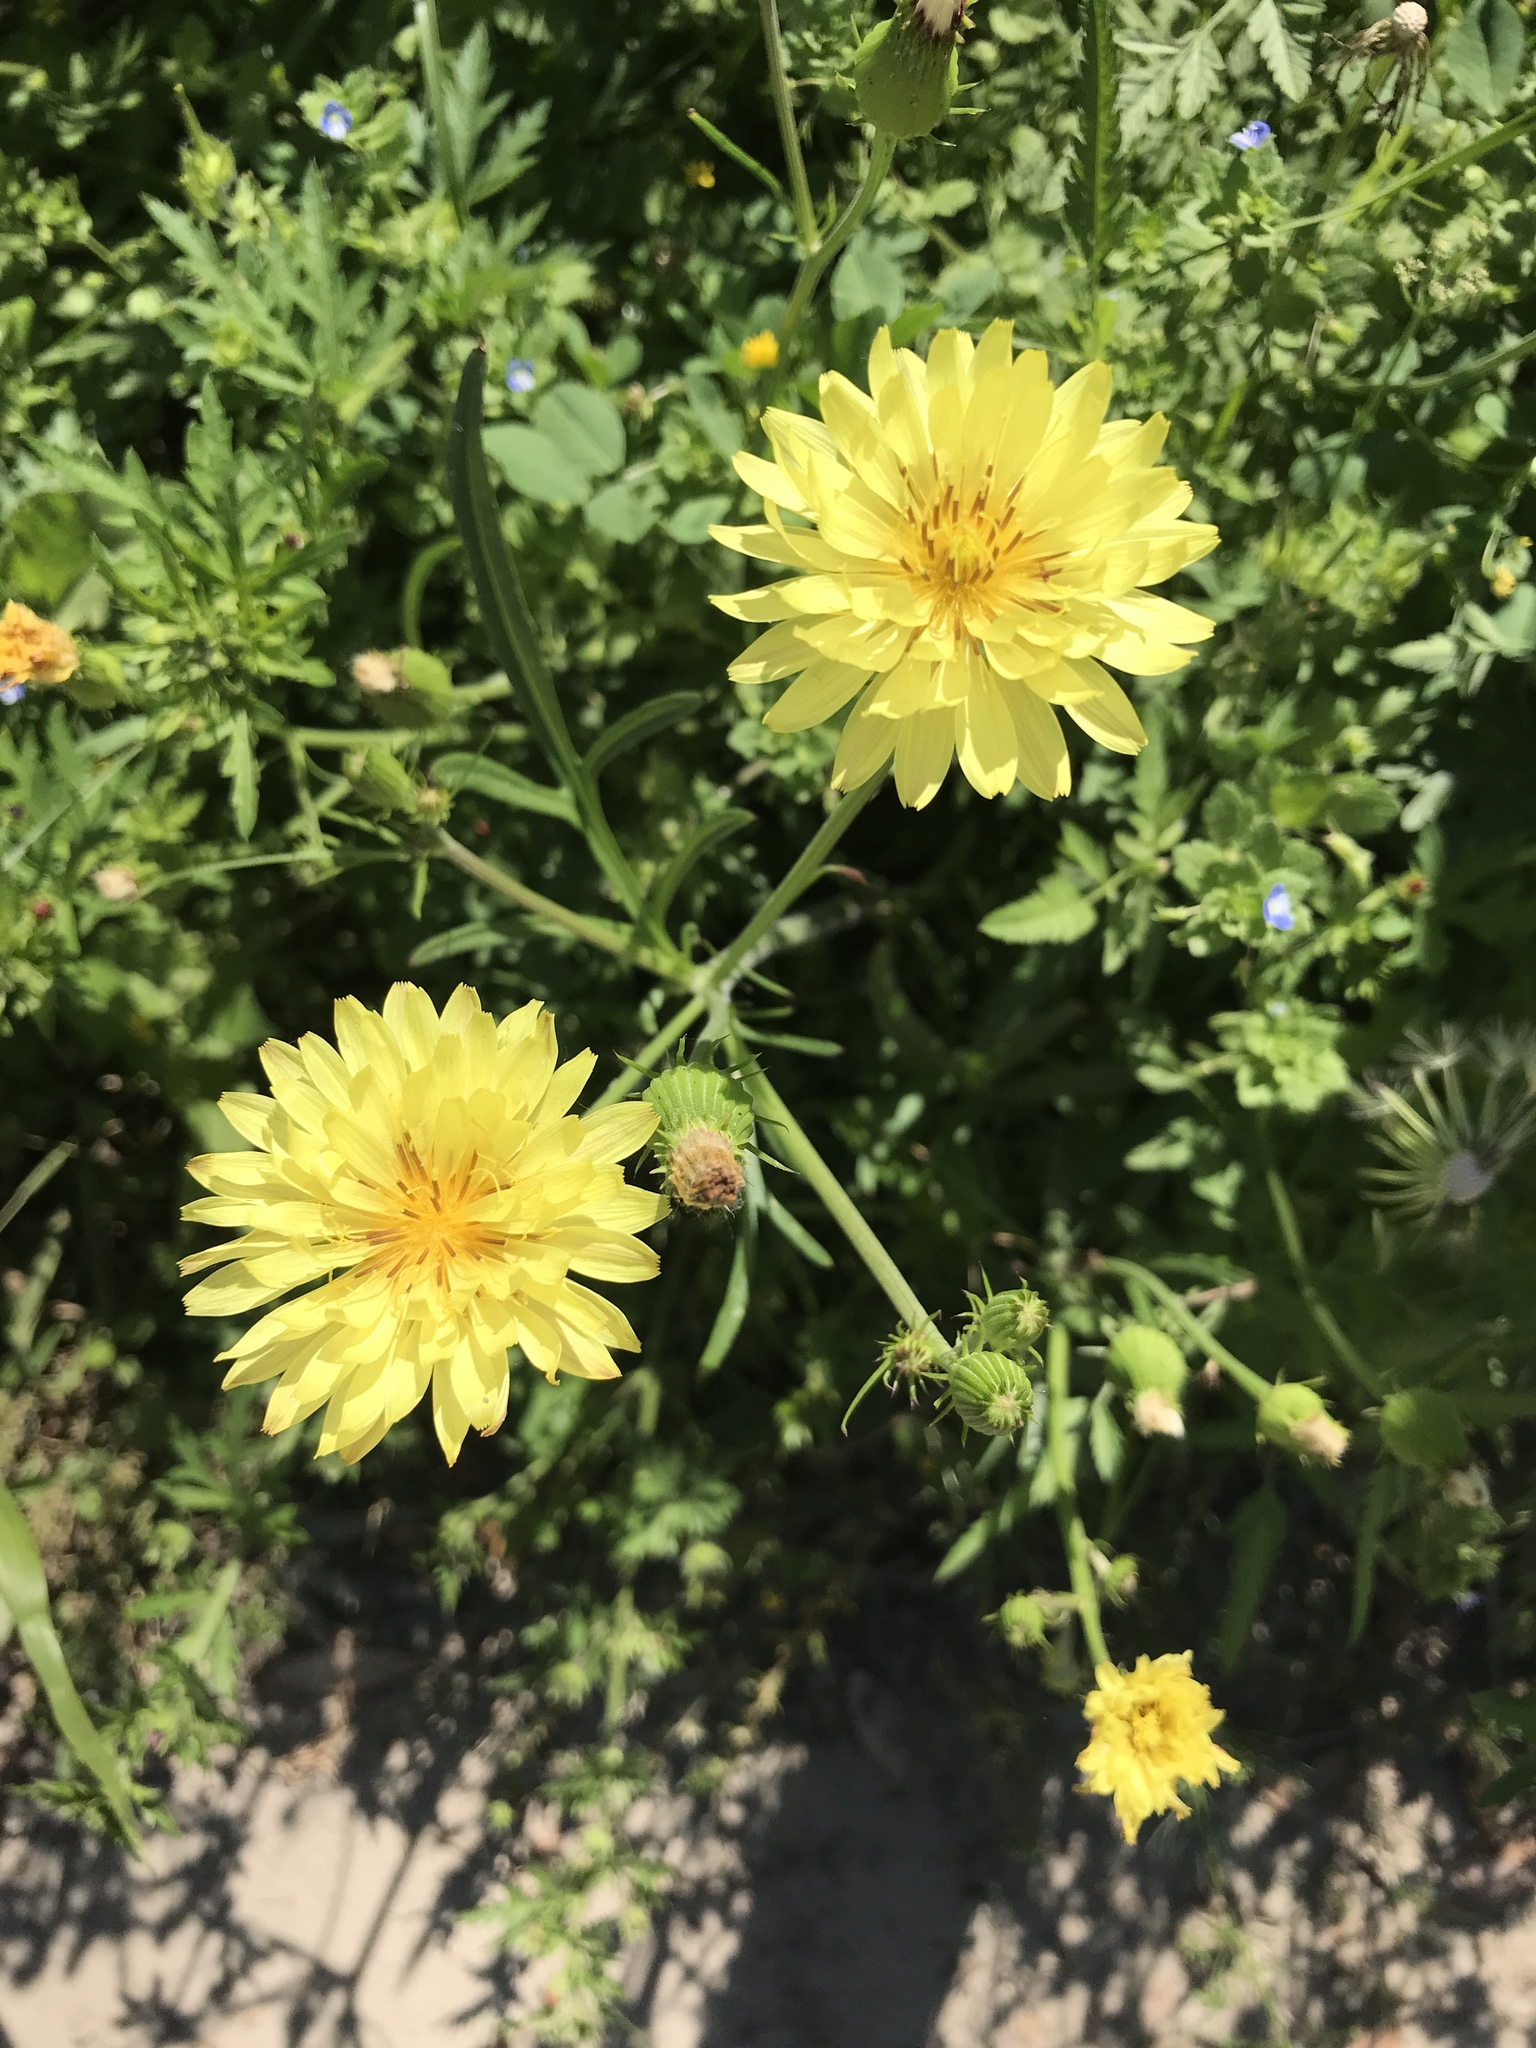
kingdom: Plantae
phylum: Tracheophyta
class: Magnoliopsida
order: Asterales
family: Asteraceae
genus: Pyrrhopappus
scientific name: Pyrrhopappus pauciflorus
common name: Texas false dandelion
